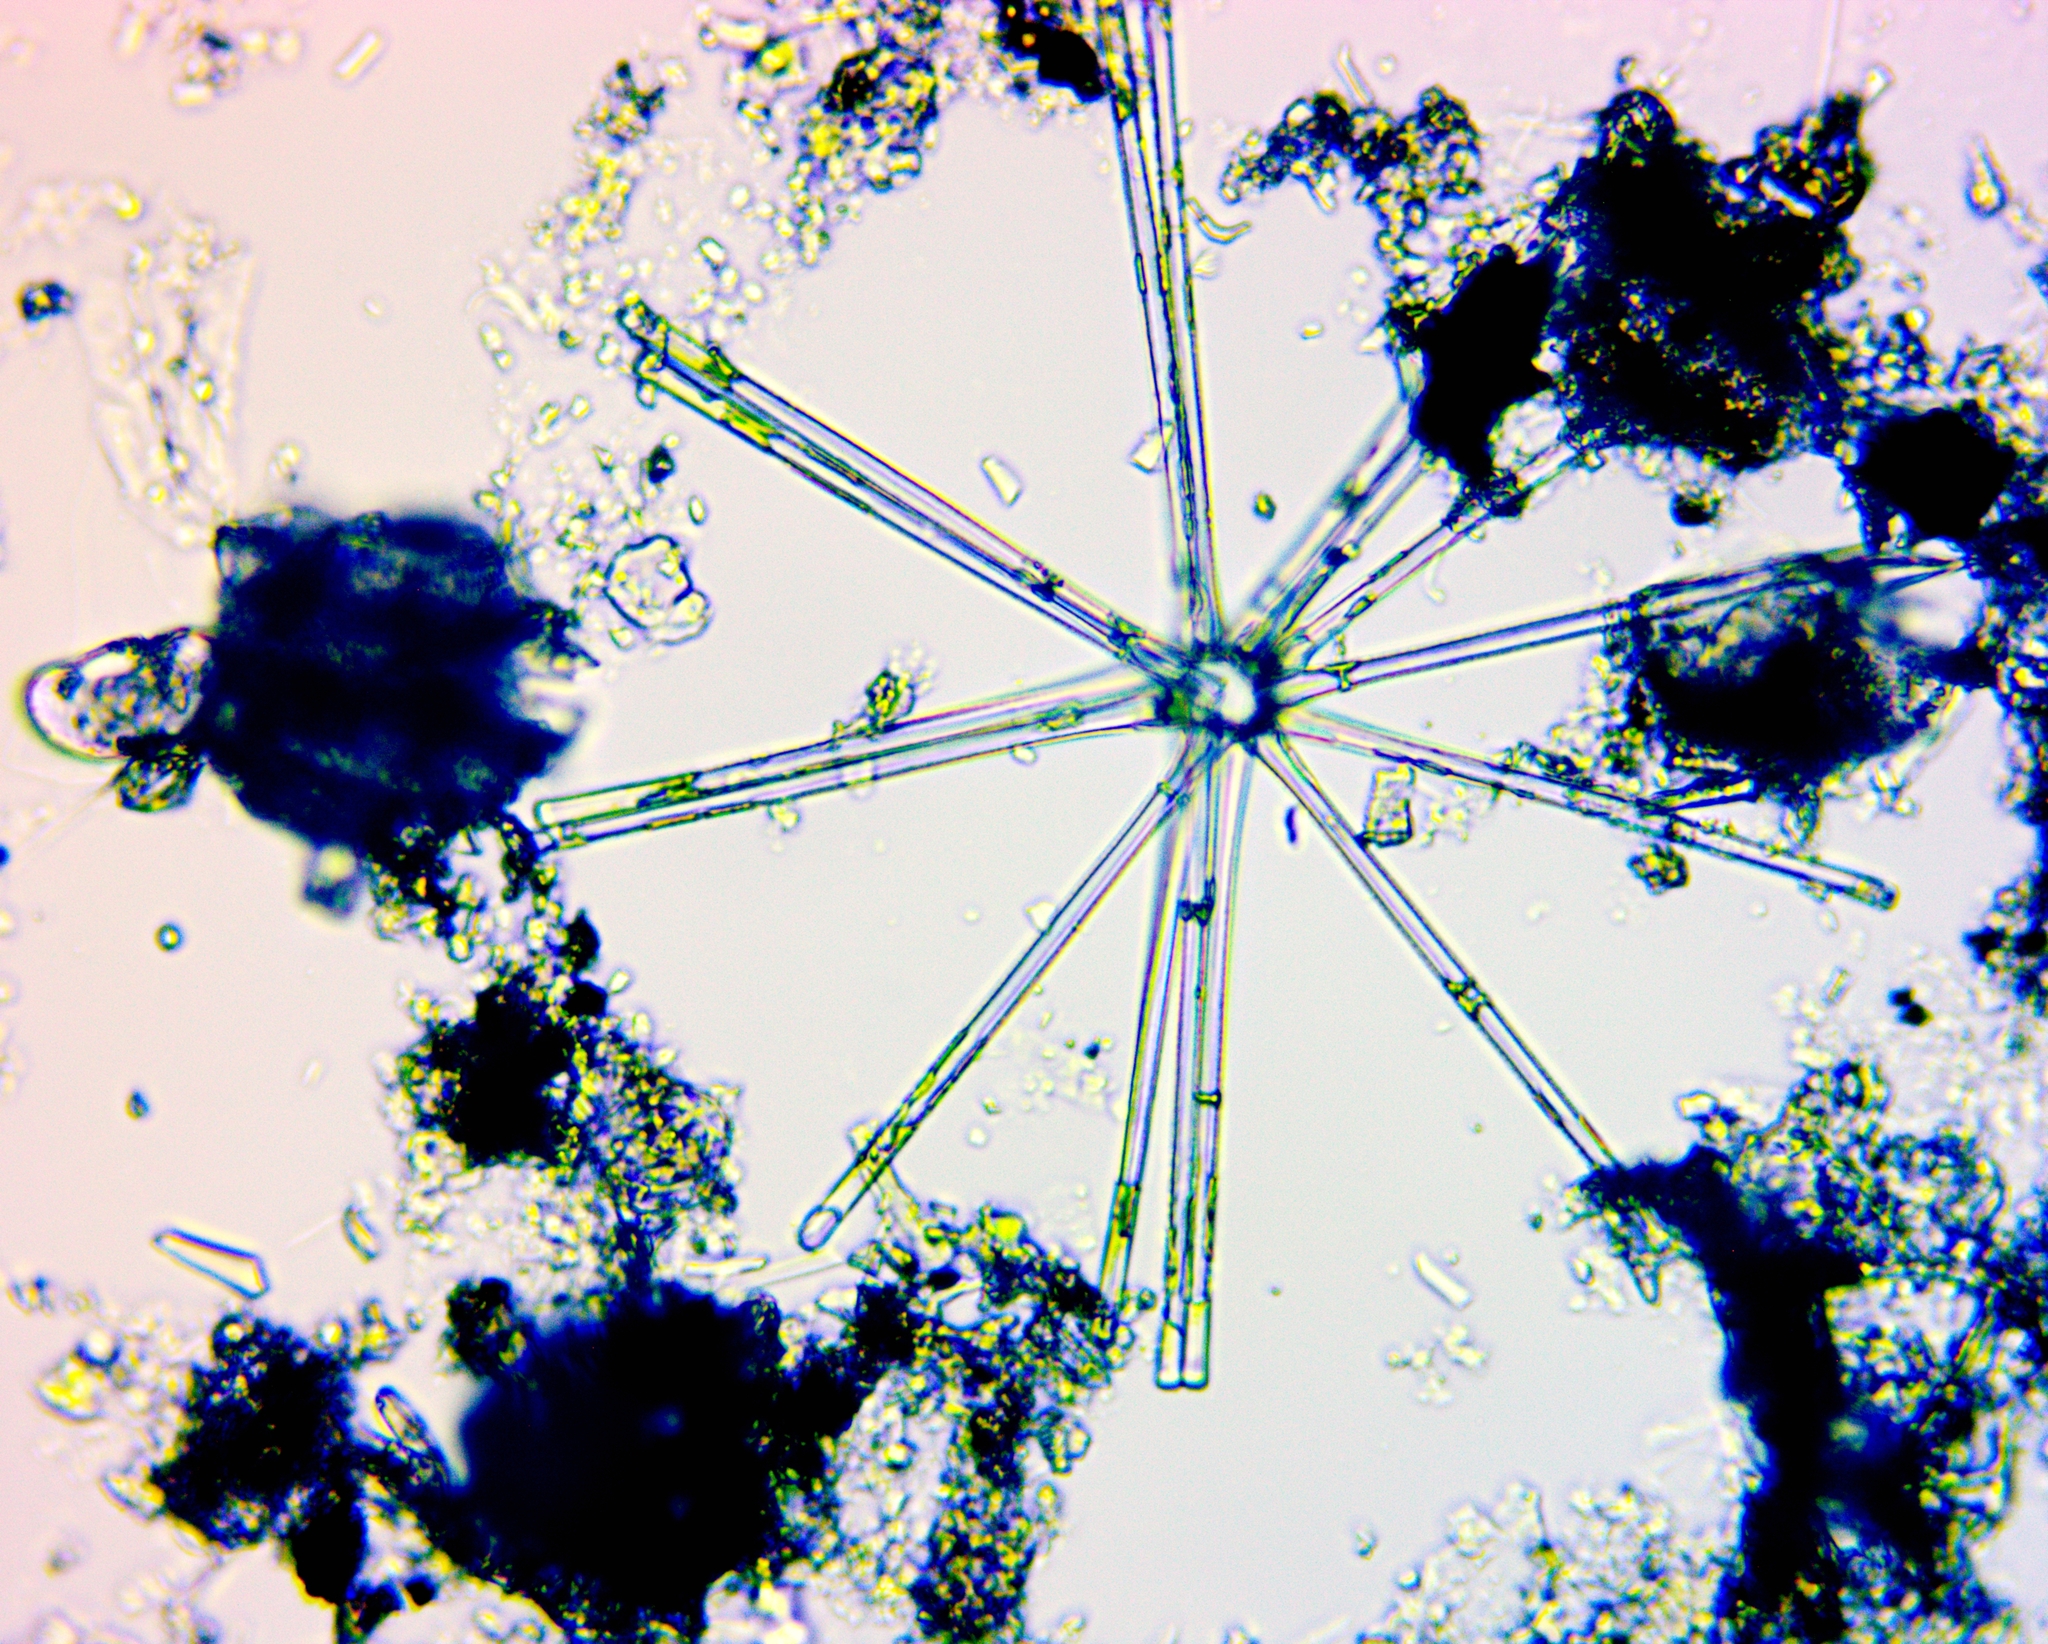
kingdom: Chromista
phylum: Ochrophyta
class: Bacillariophyceae
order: Fragilariales
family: Fragilariaceae
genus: Asterionella
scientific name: Asterionella formosa
